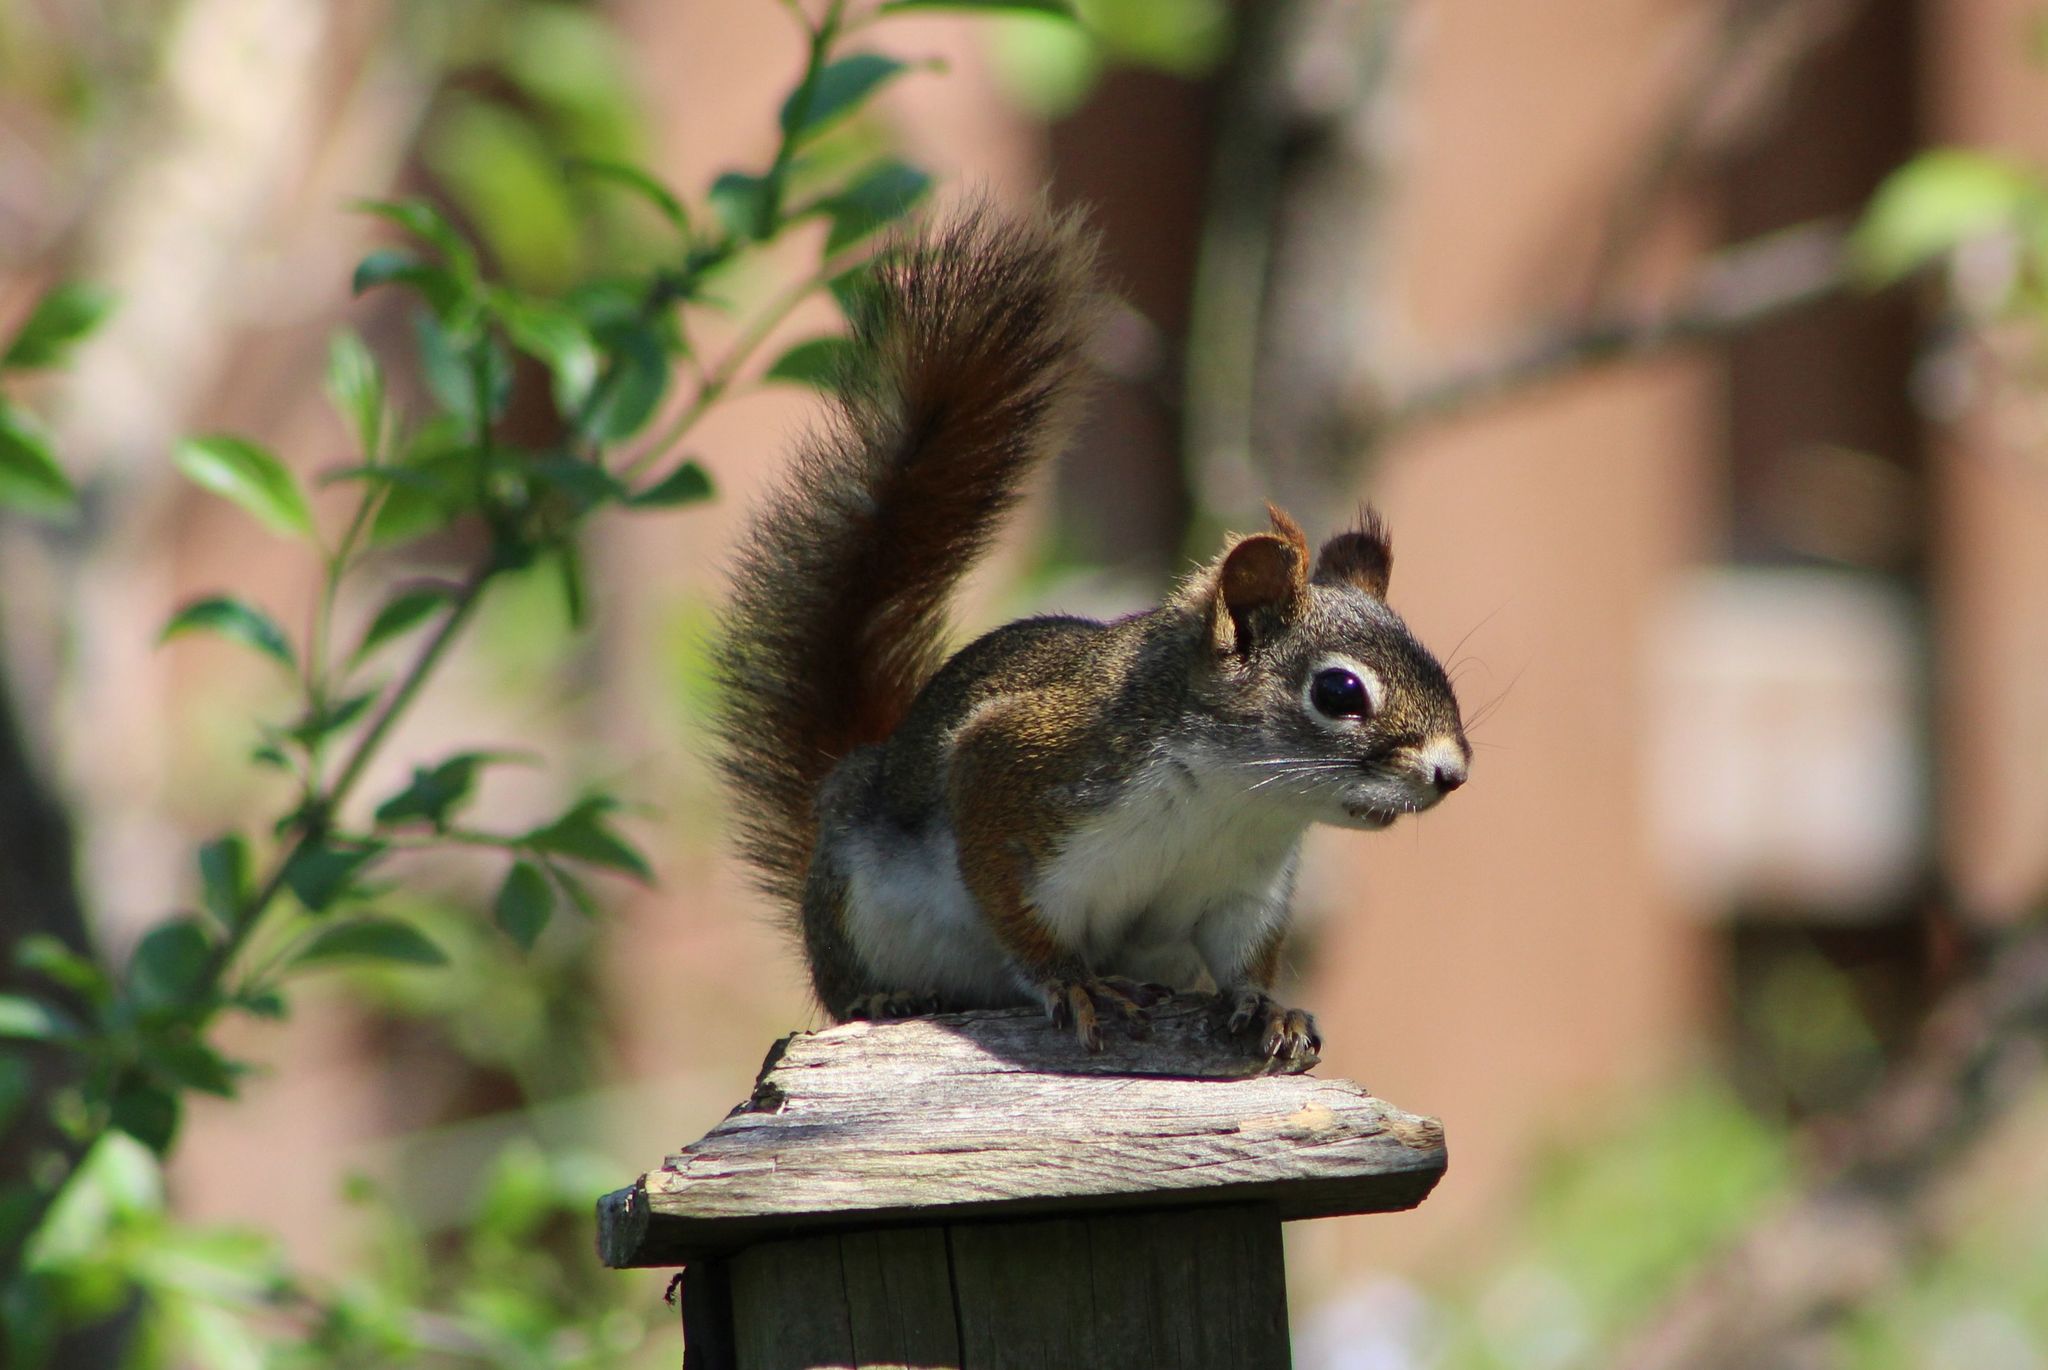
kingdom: Animalia
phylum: Chordata
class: Mammalia
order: Rodentia
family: Sciuridae
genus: Tamiasciurus
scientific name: Tamiasciurus hudsonicus
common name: Red squirrel
